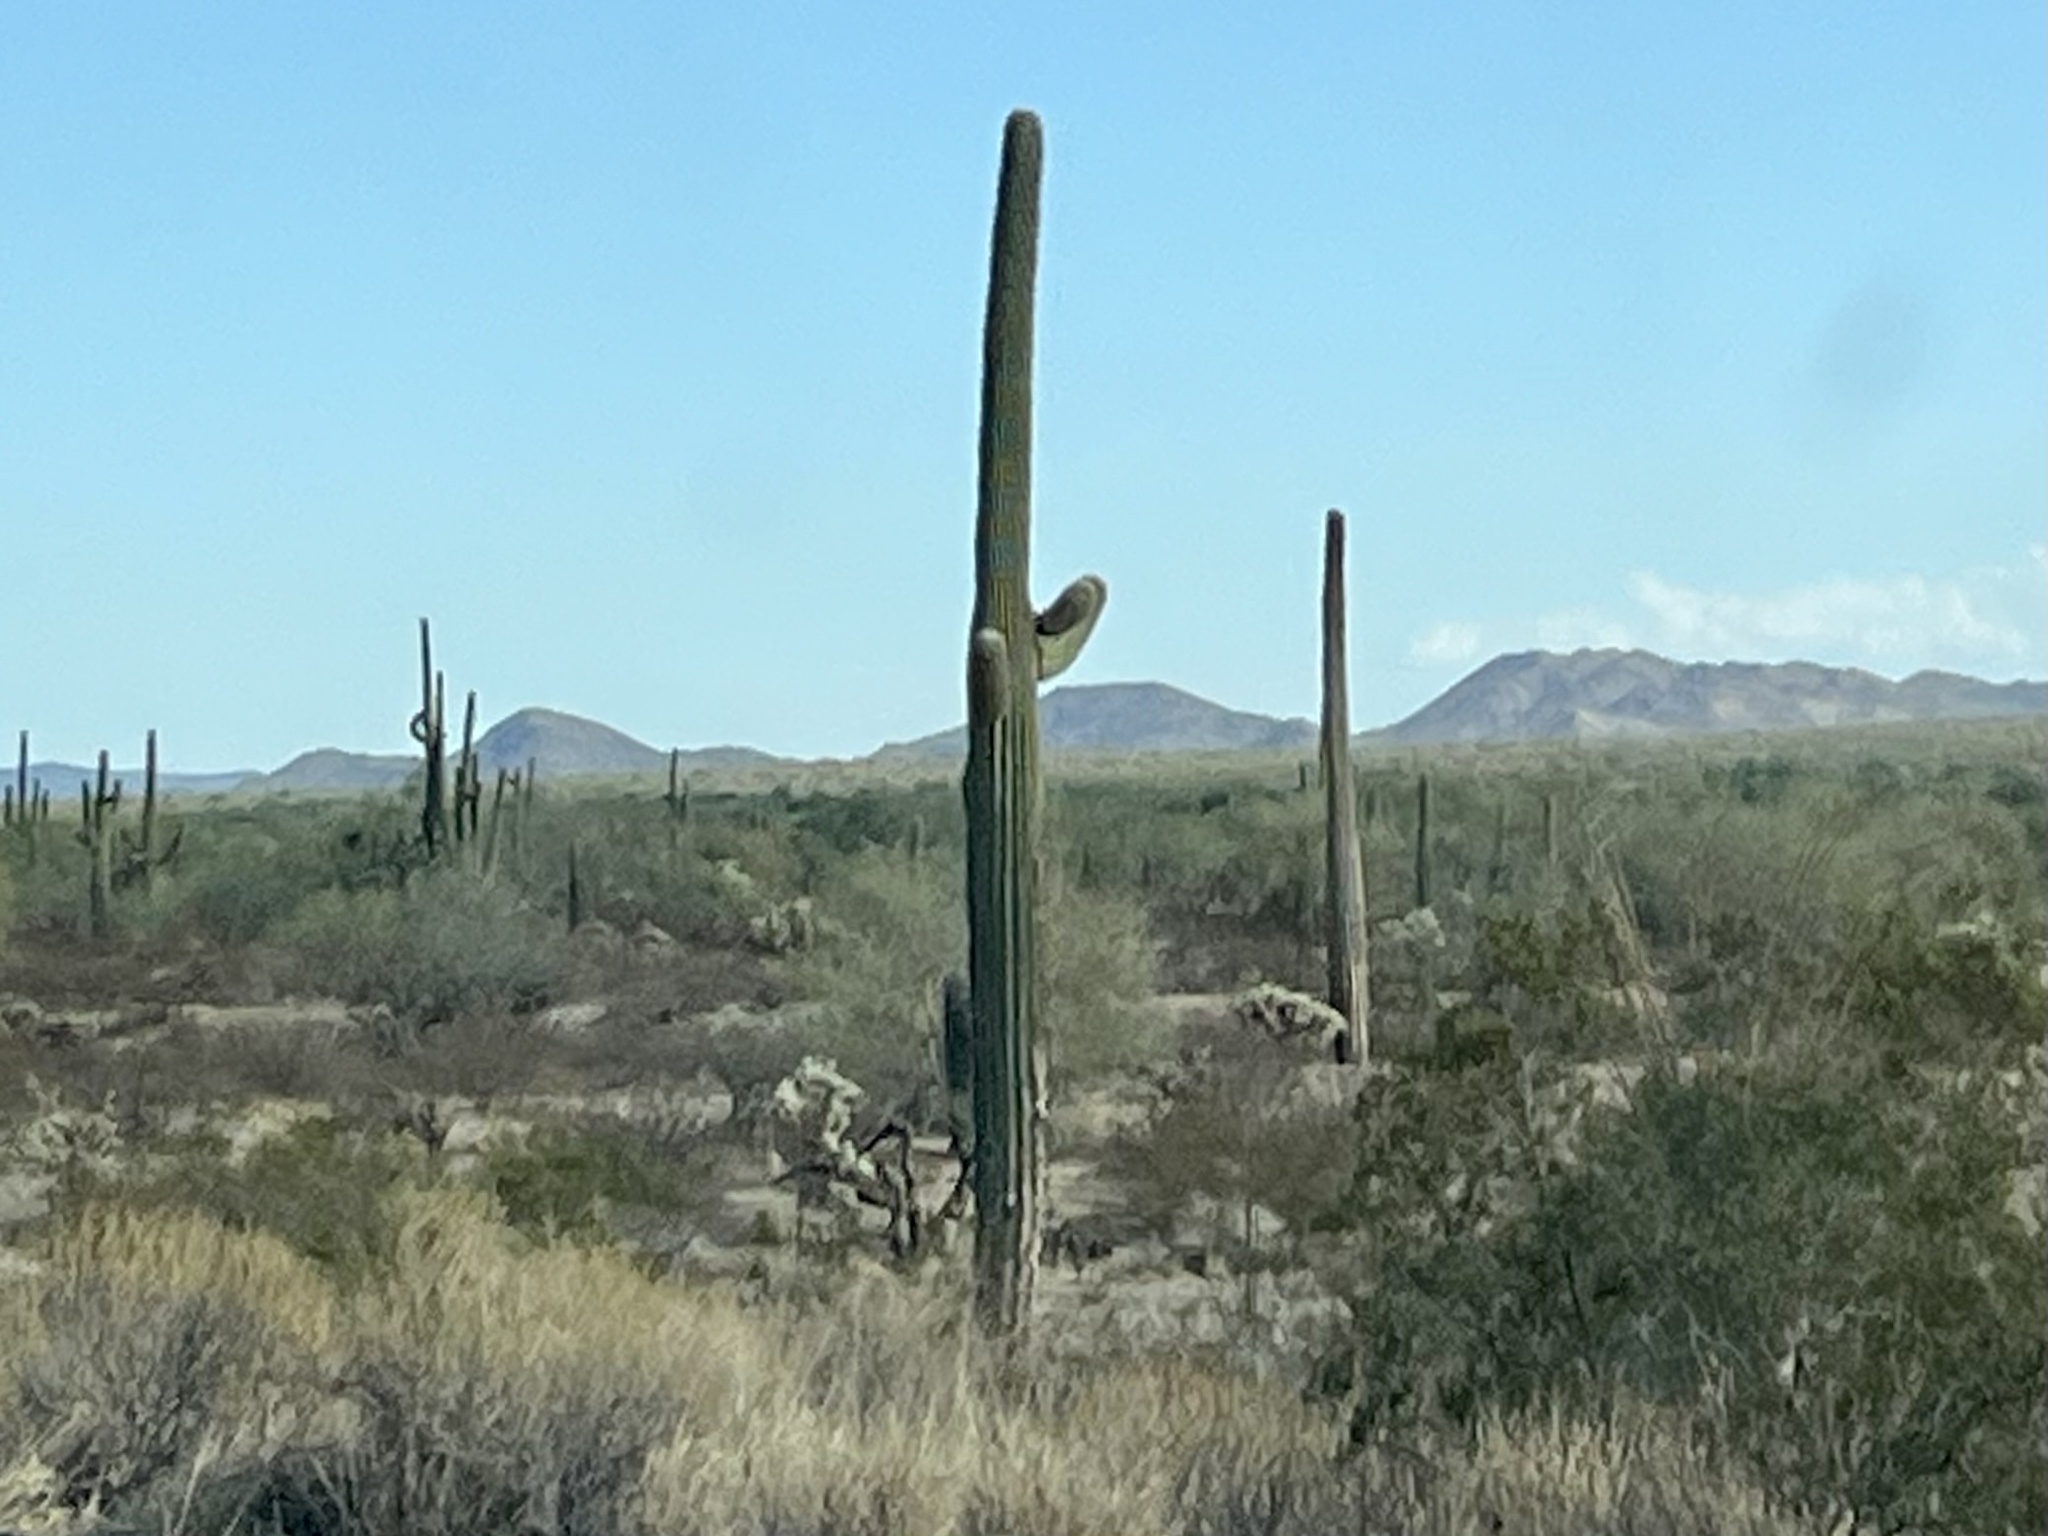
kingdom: Plantae
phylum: Tracheophyta
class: Magnoliopsida
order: Caryophyllales
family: Cactaceae
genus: Carnegiea
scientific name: Carnegiea gigantea
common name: Saguaro
